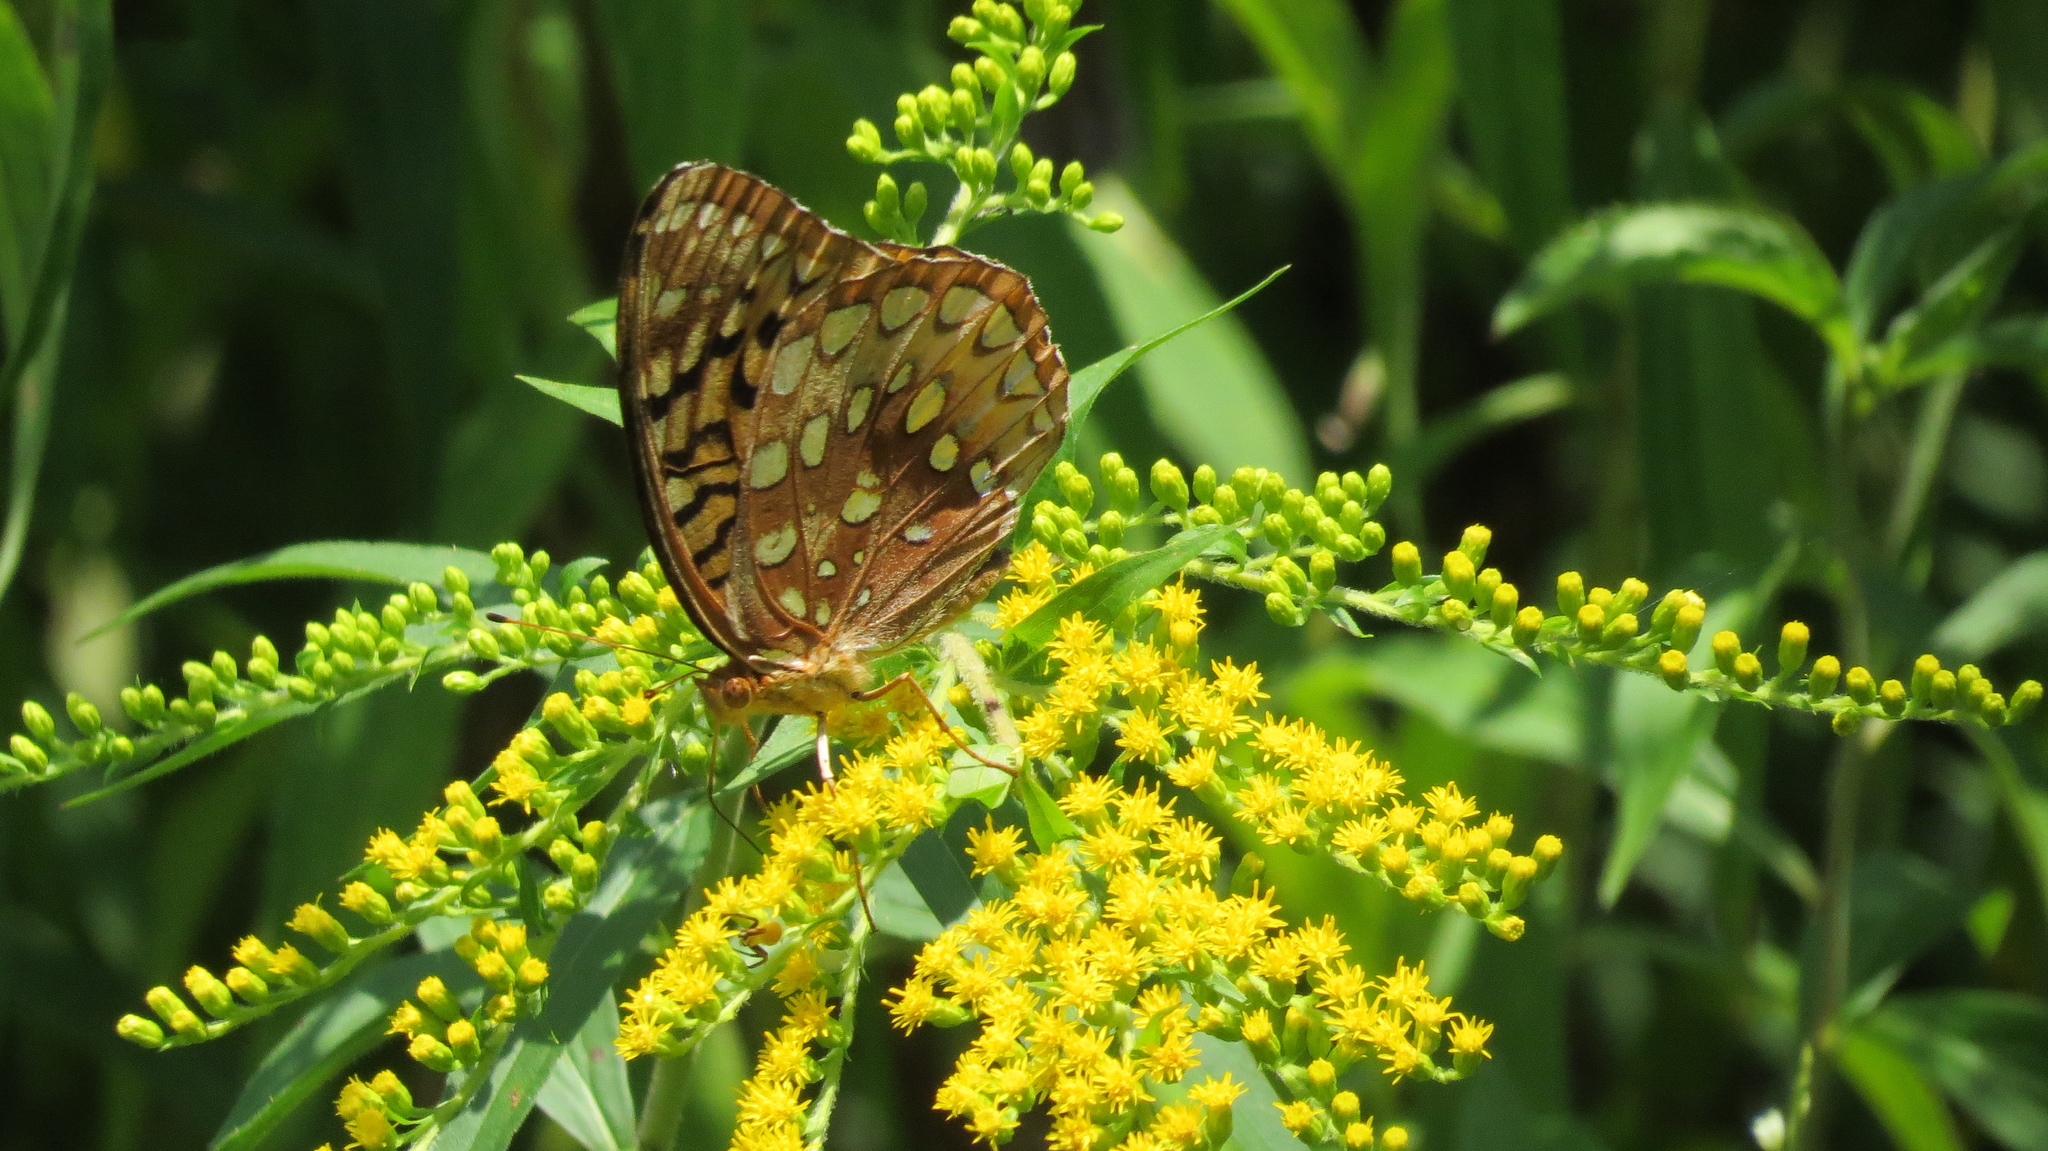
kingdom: Animalia
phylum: Arthropoda
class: Insecta
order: Lepidoptera
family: Nymphalidae
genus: Speyeria
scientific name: Speyeria cybele
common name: Great spangled fritillary
